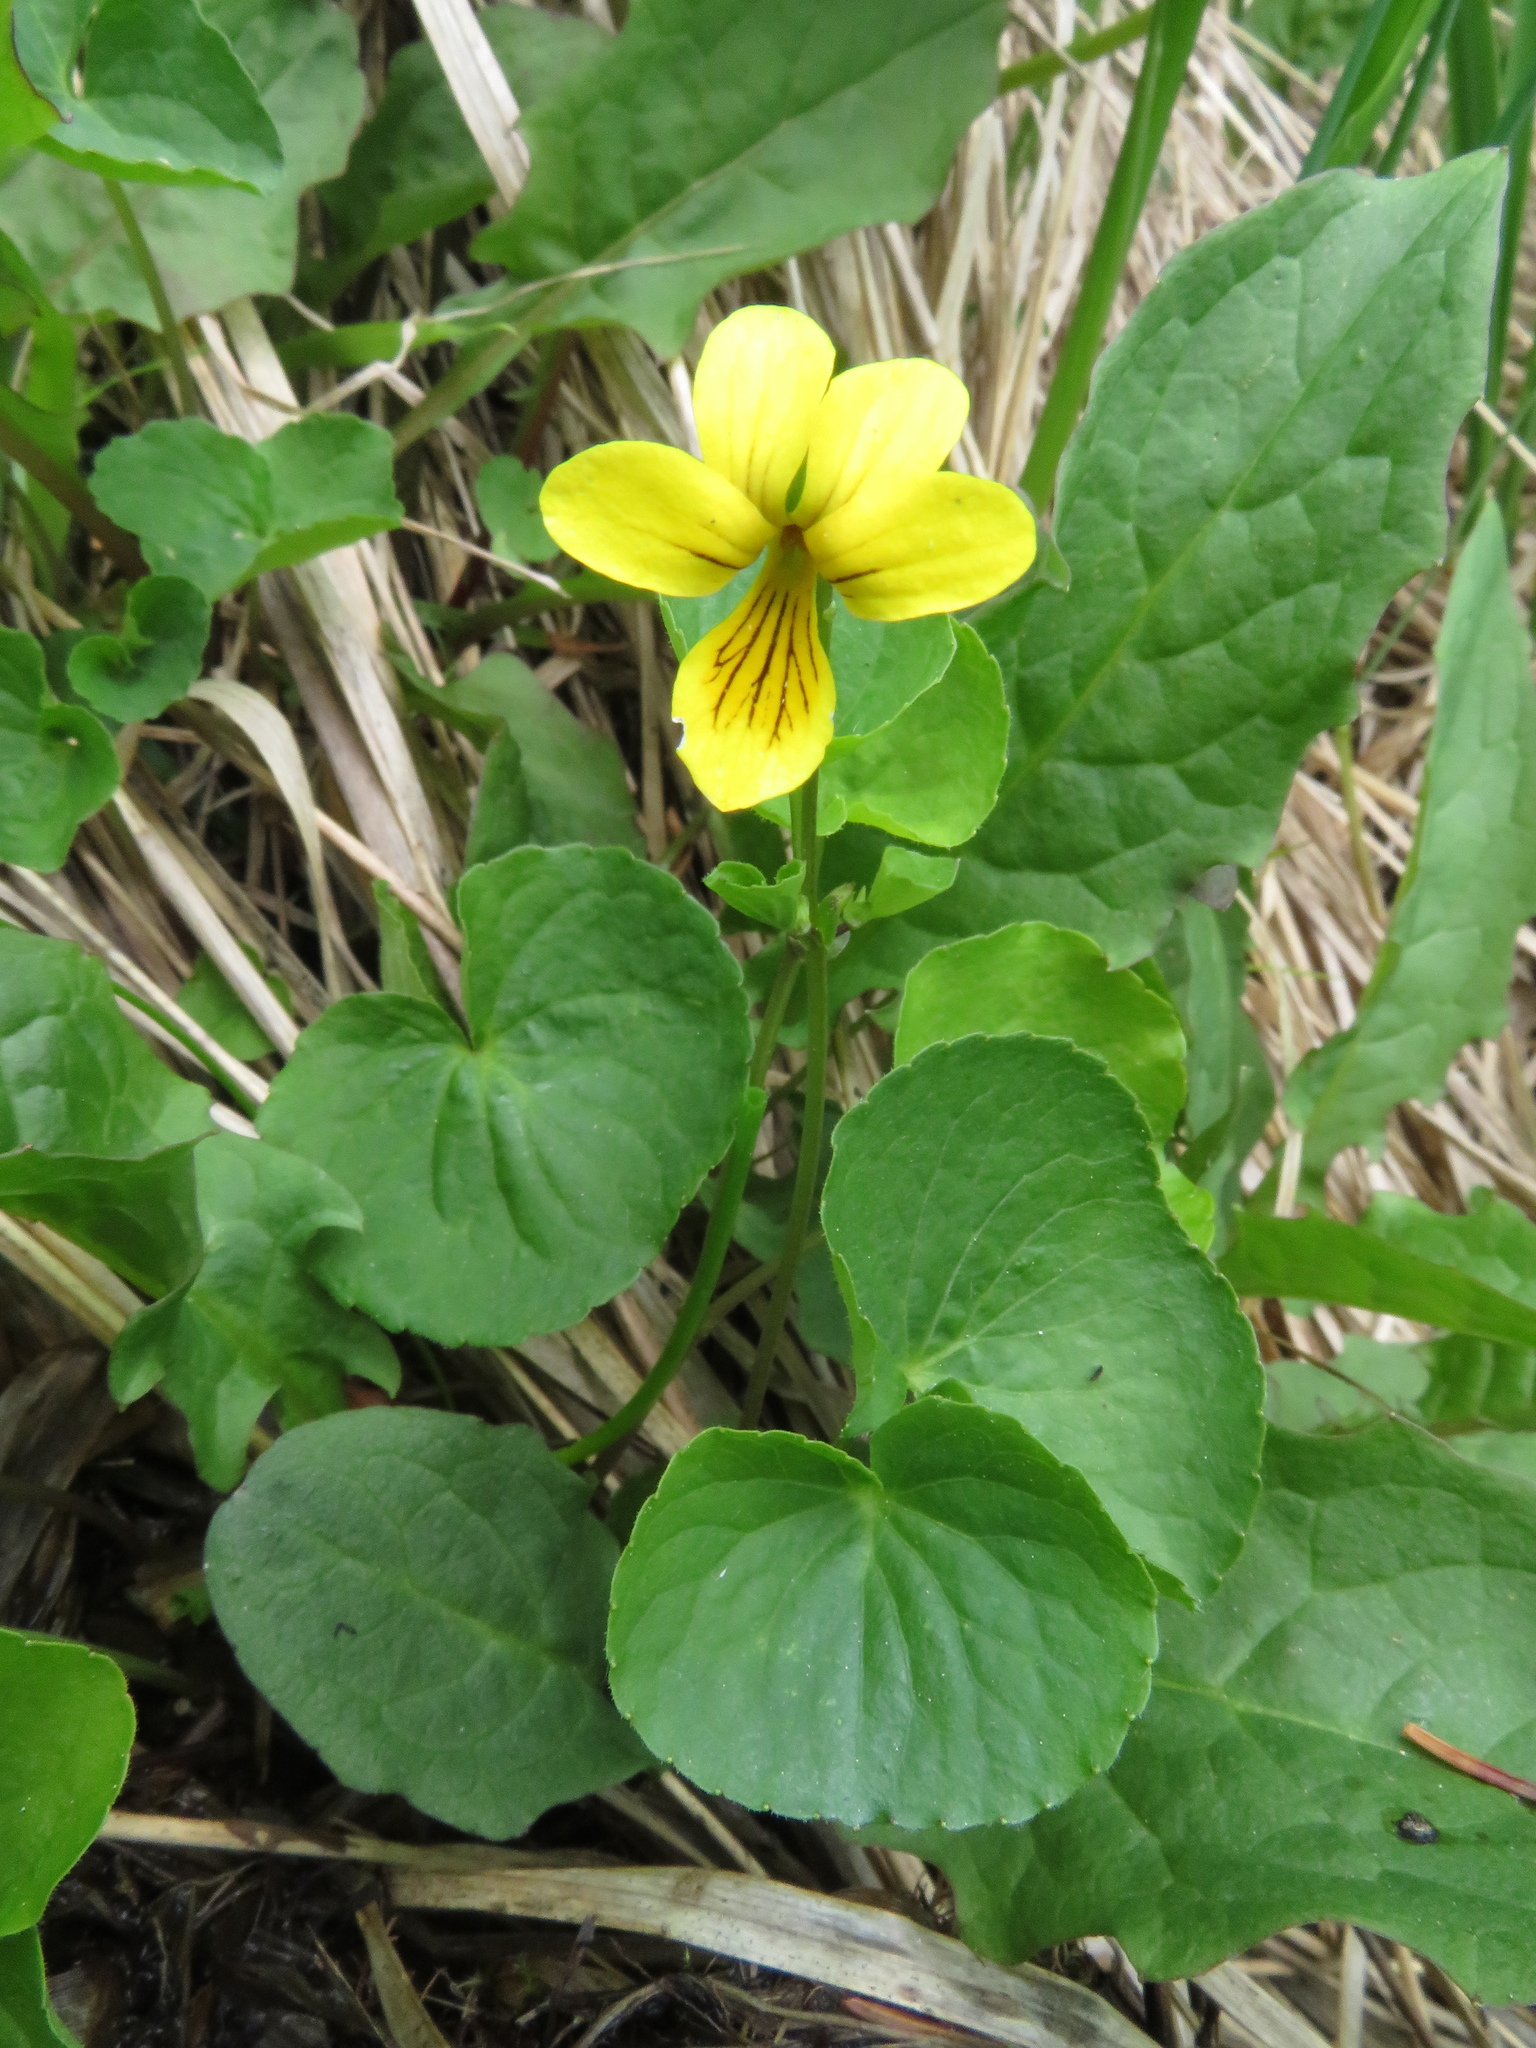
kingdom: Plantae
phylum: Tracheophyta
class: Magnoliopsida
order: Malpighiales
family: Violaceae
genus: Viola
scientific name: Viola biflora
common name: Alpine yellow violet
